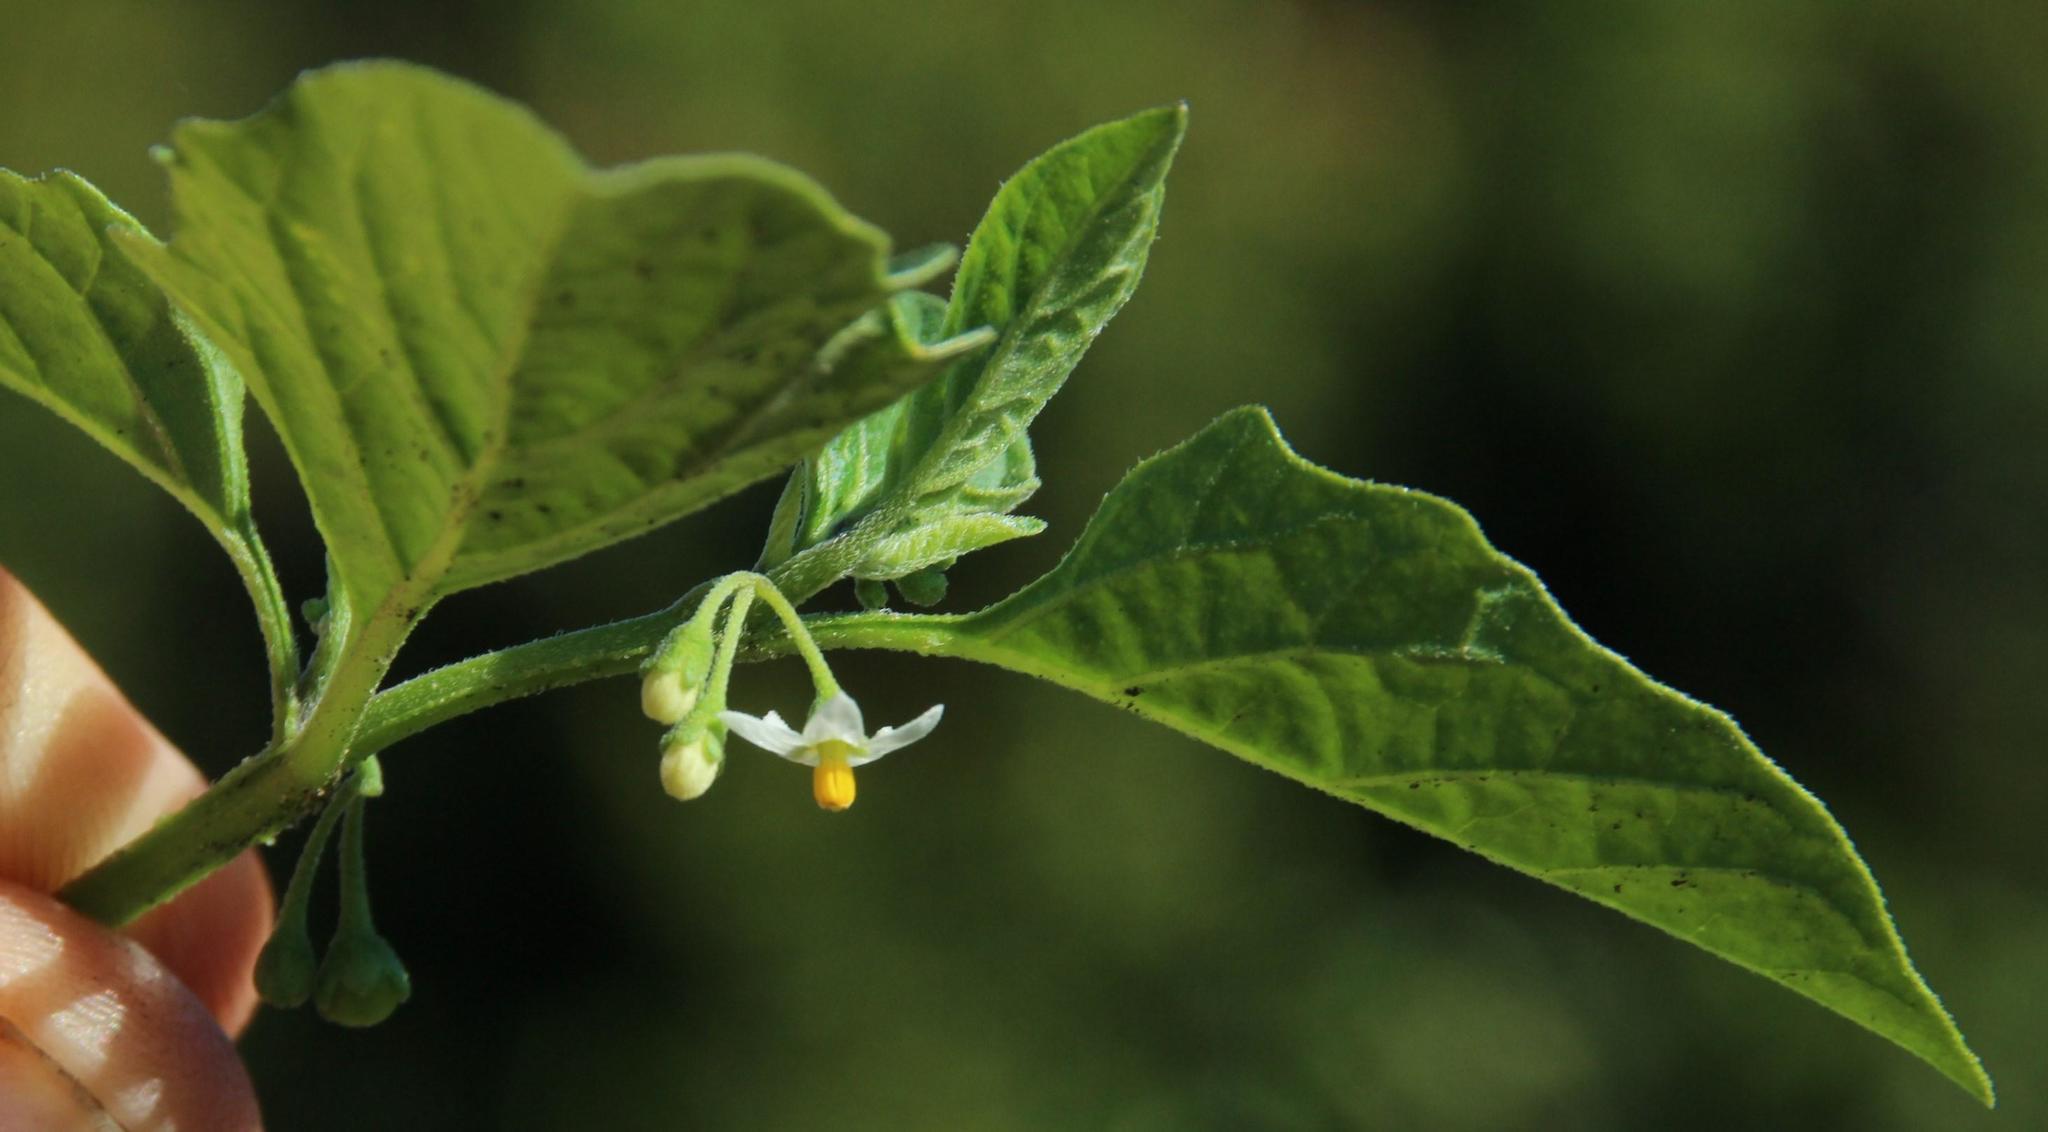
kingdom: Plantae
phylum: Tracheophyta
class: Magnoliopsida
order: Solanales
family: Solanaceae
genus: Solanum
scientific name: Solanum nigrum
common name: Black nightshade
